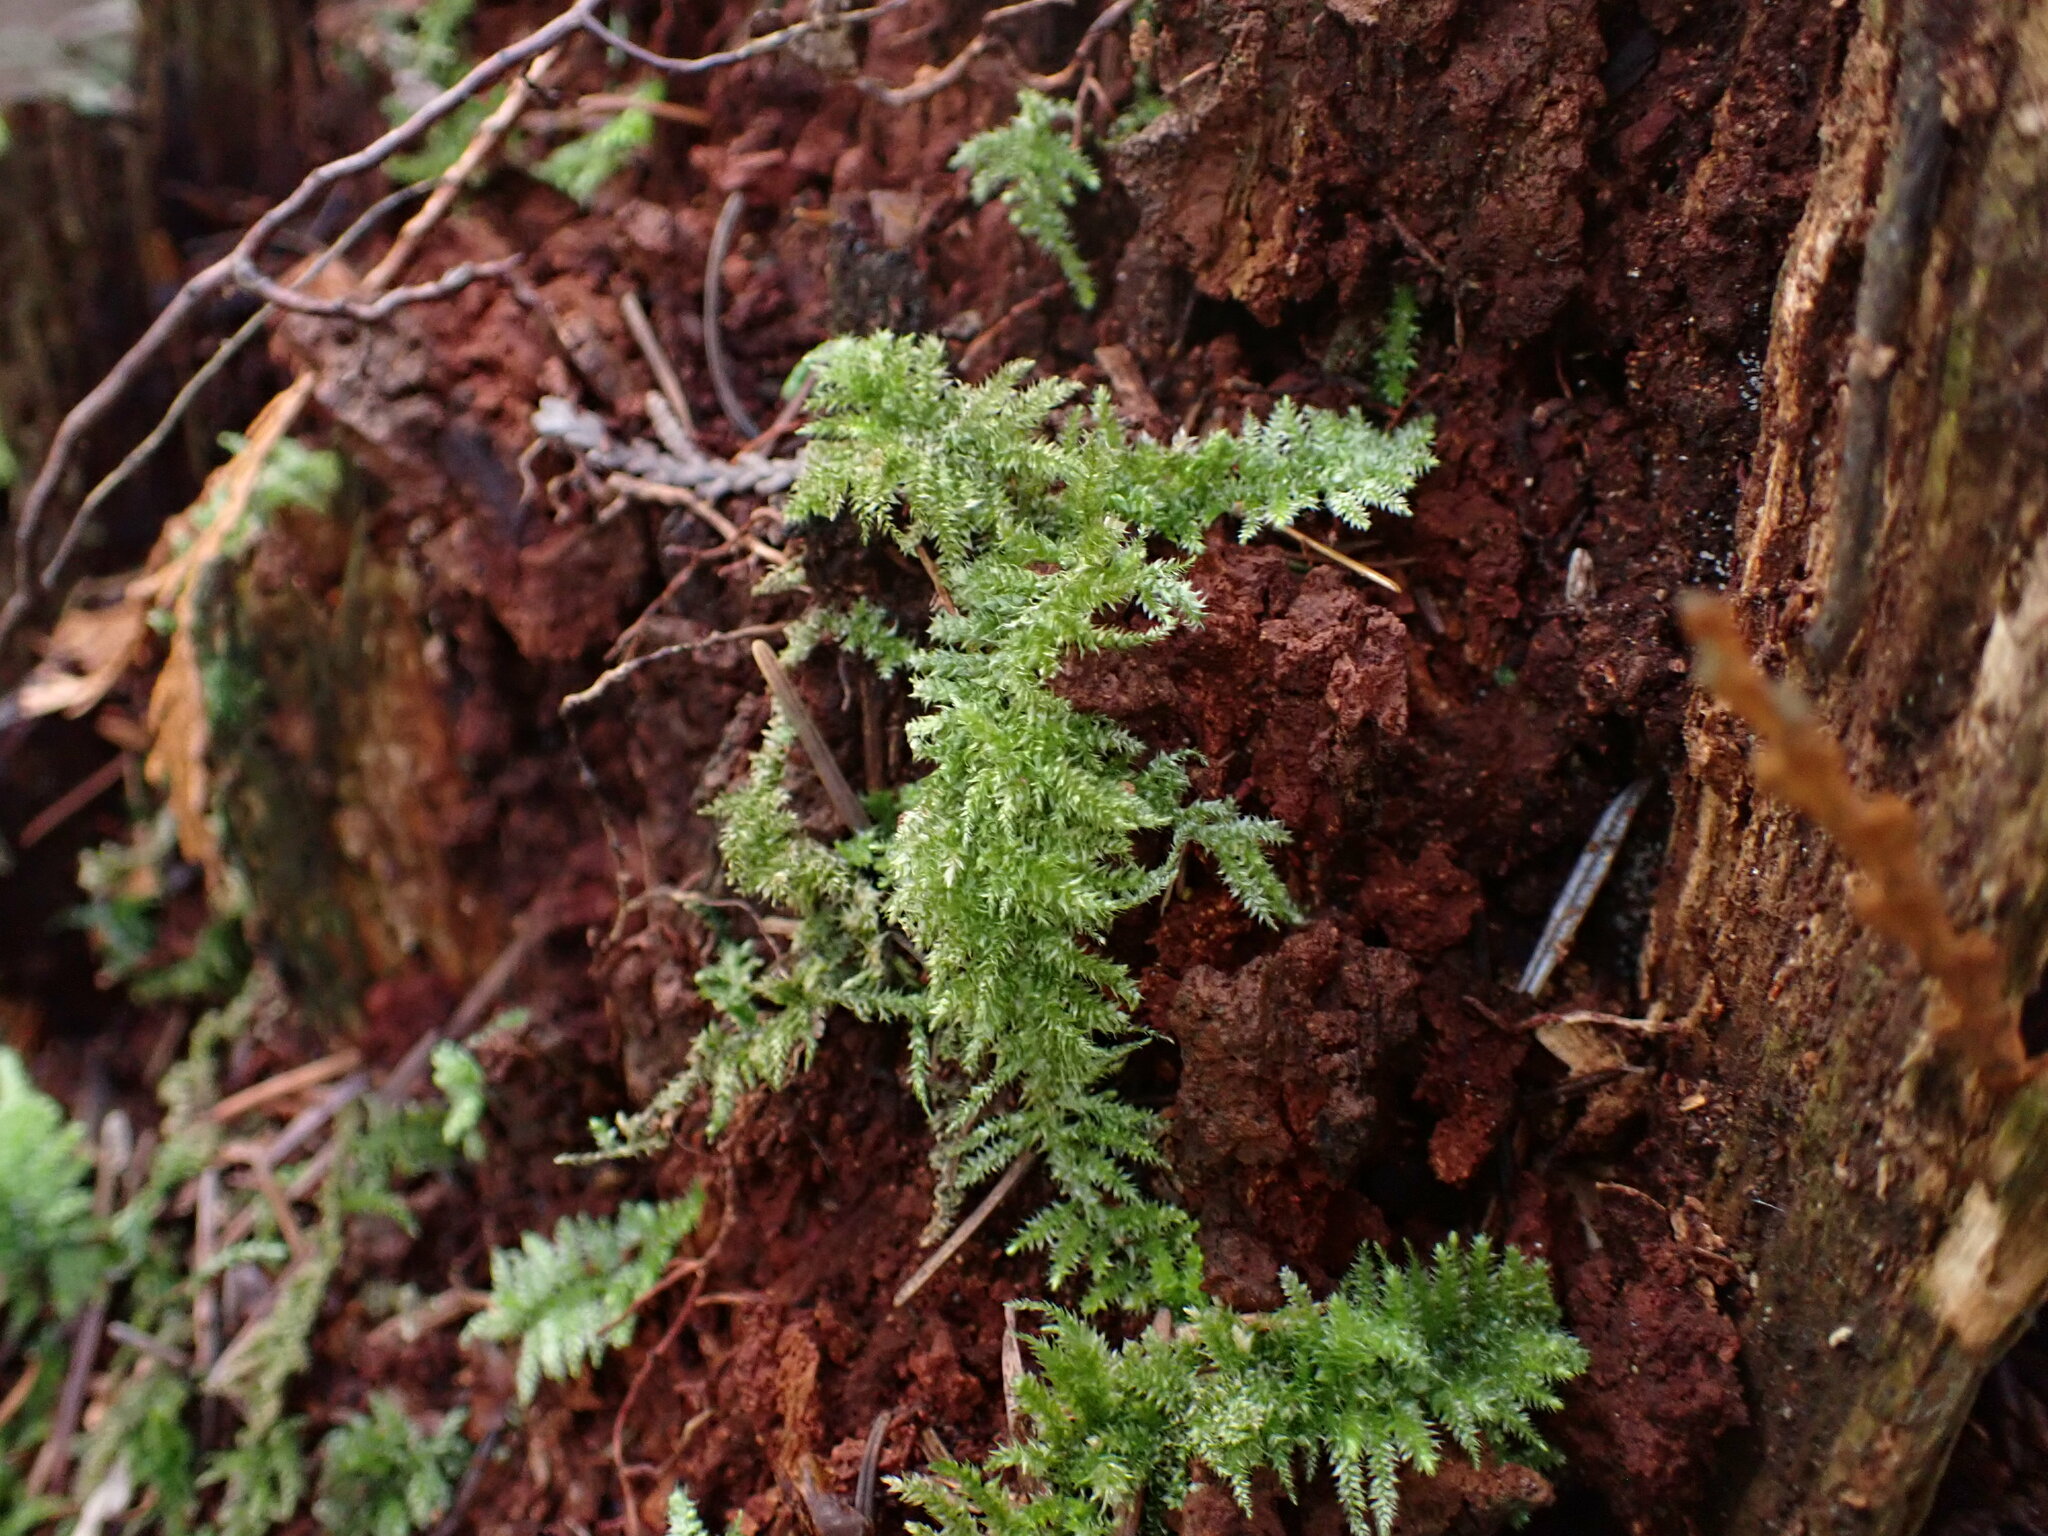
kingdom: Plantae
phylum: Bryophyta
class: Bryopsida
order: Hypnales
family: Brachytheciaceae
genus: Kindbergia
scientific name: Kindbergia oregana
